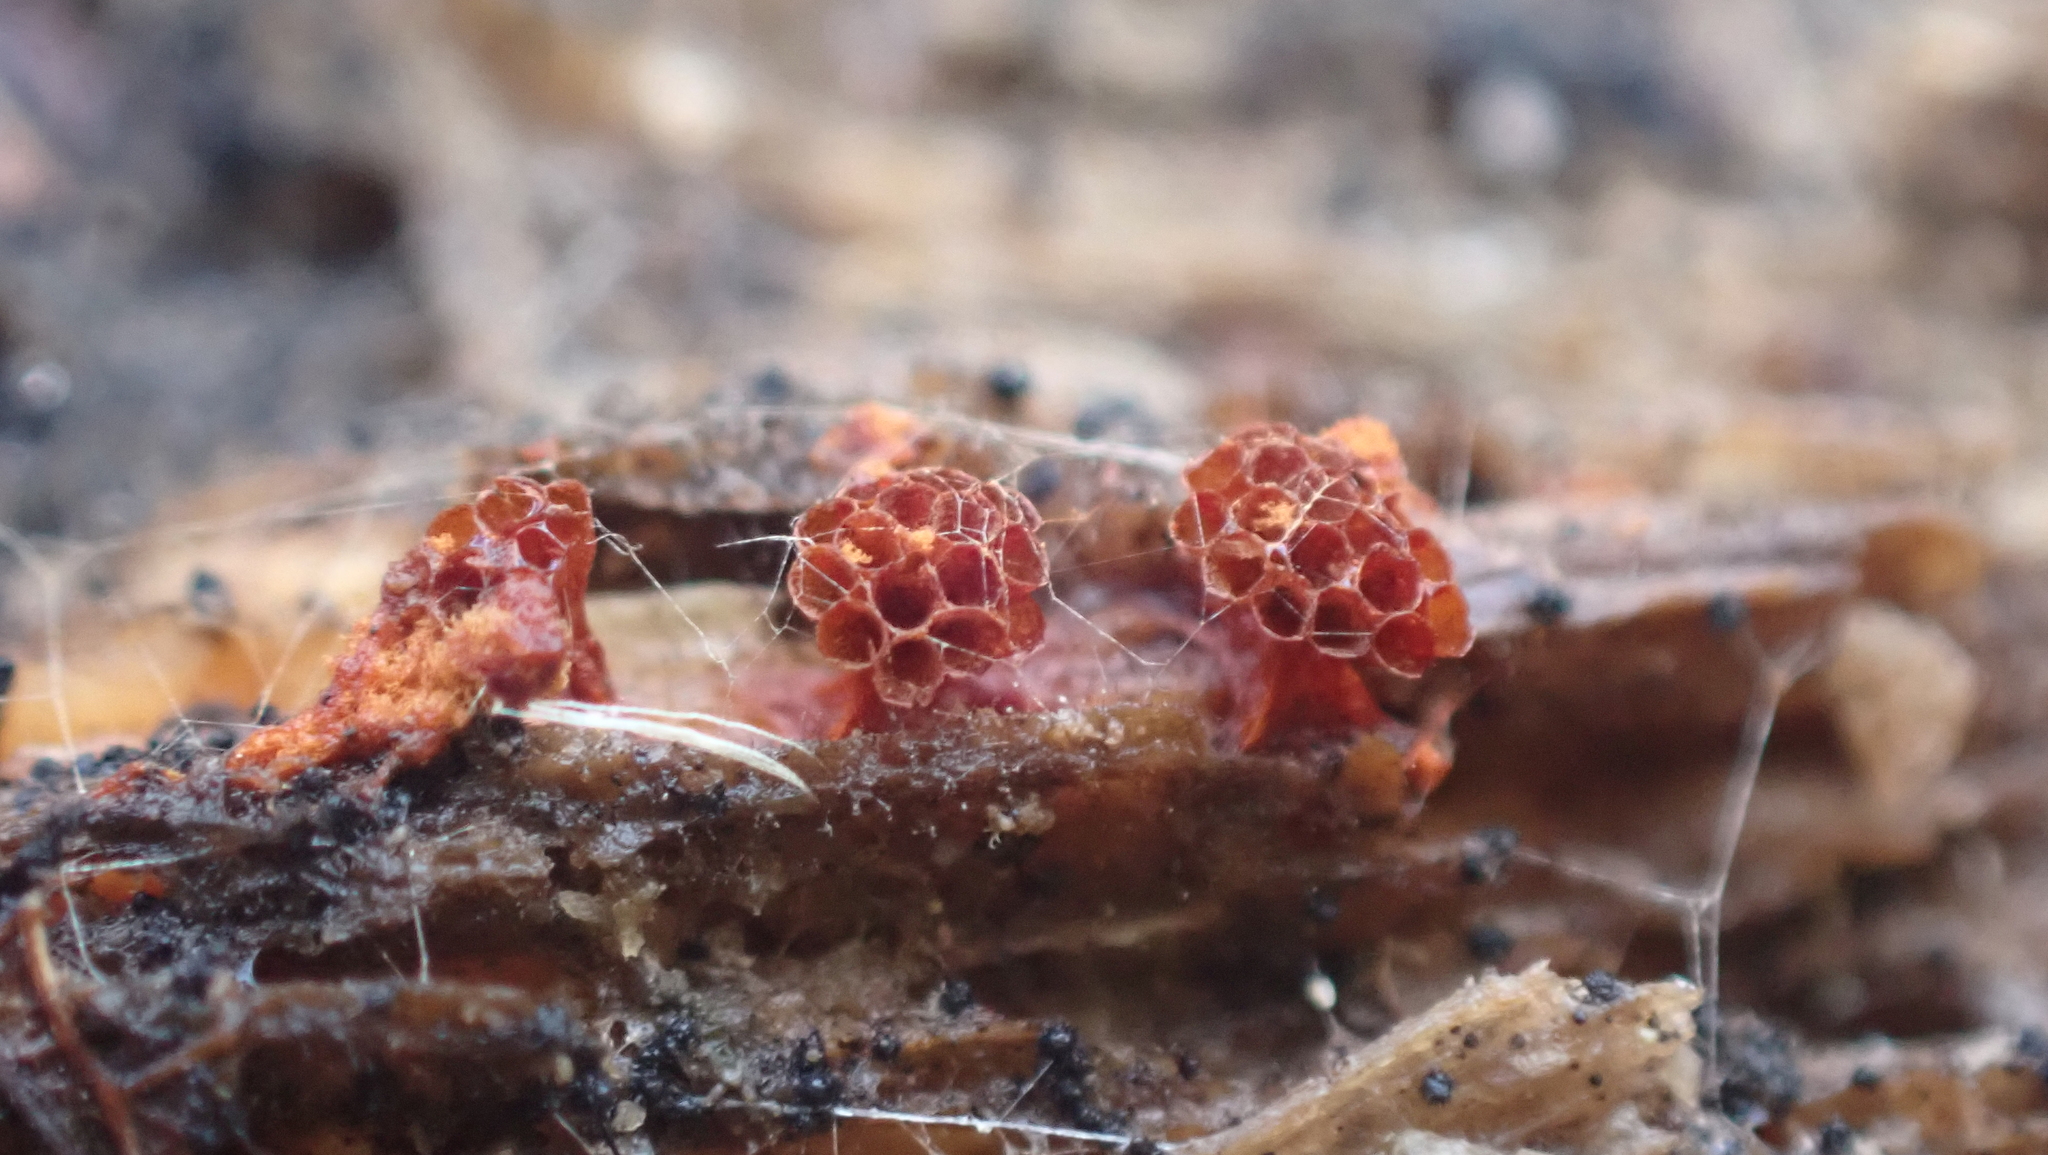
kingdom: Protozoa
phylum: Mycetozoa
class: Myxomycetes
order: Trichiales
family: Trichiaceae
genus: Metatrichia
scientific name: Metatrichia vesparia
